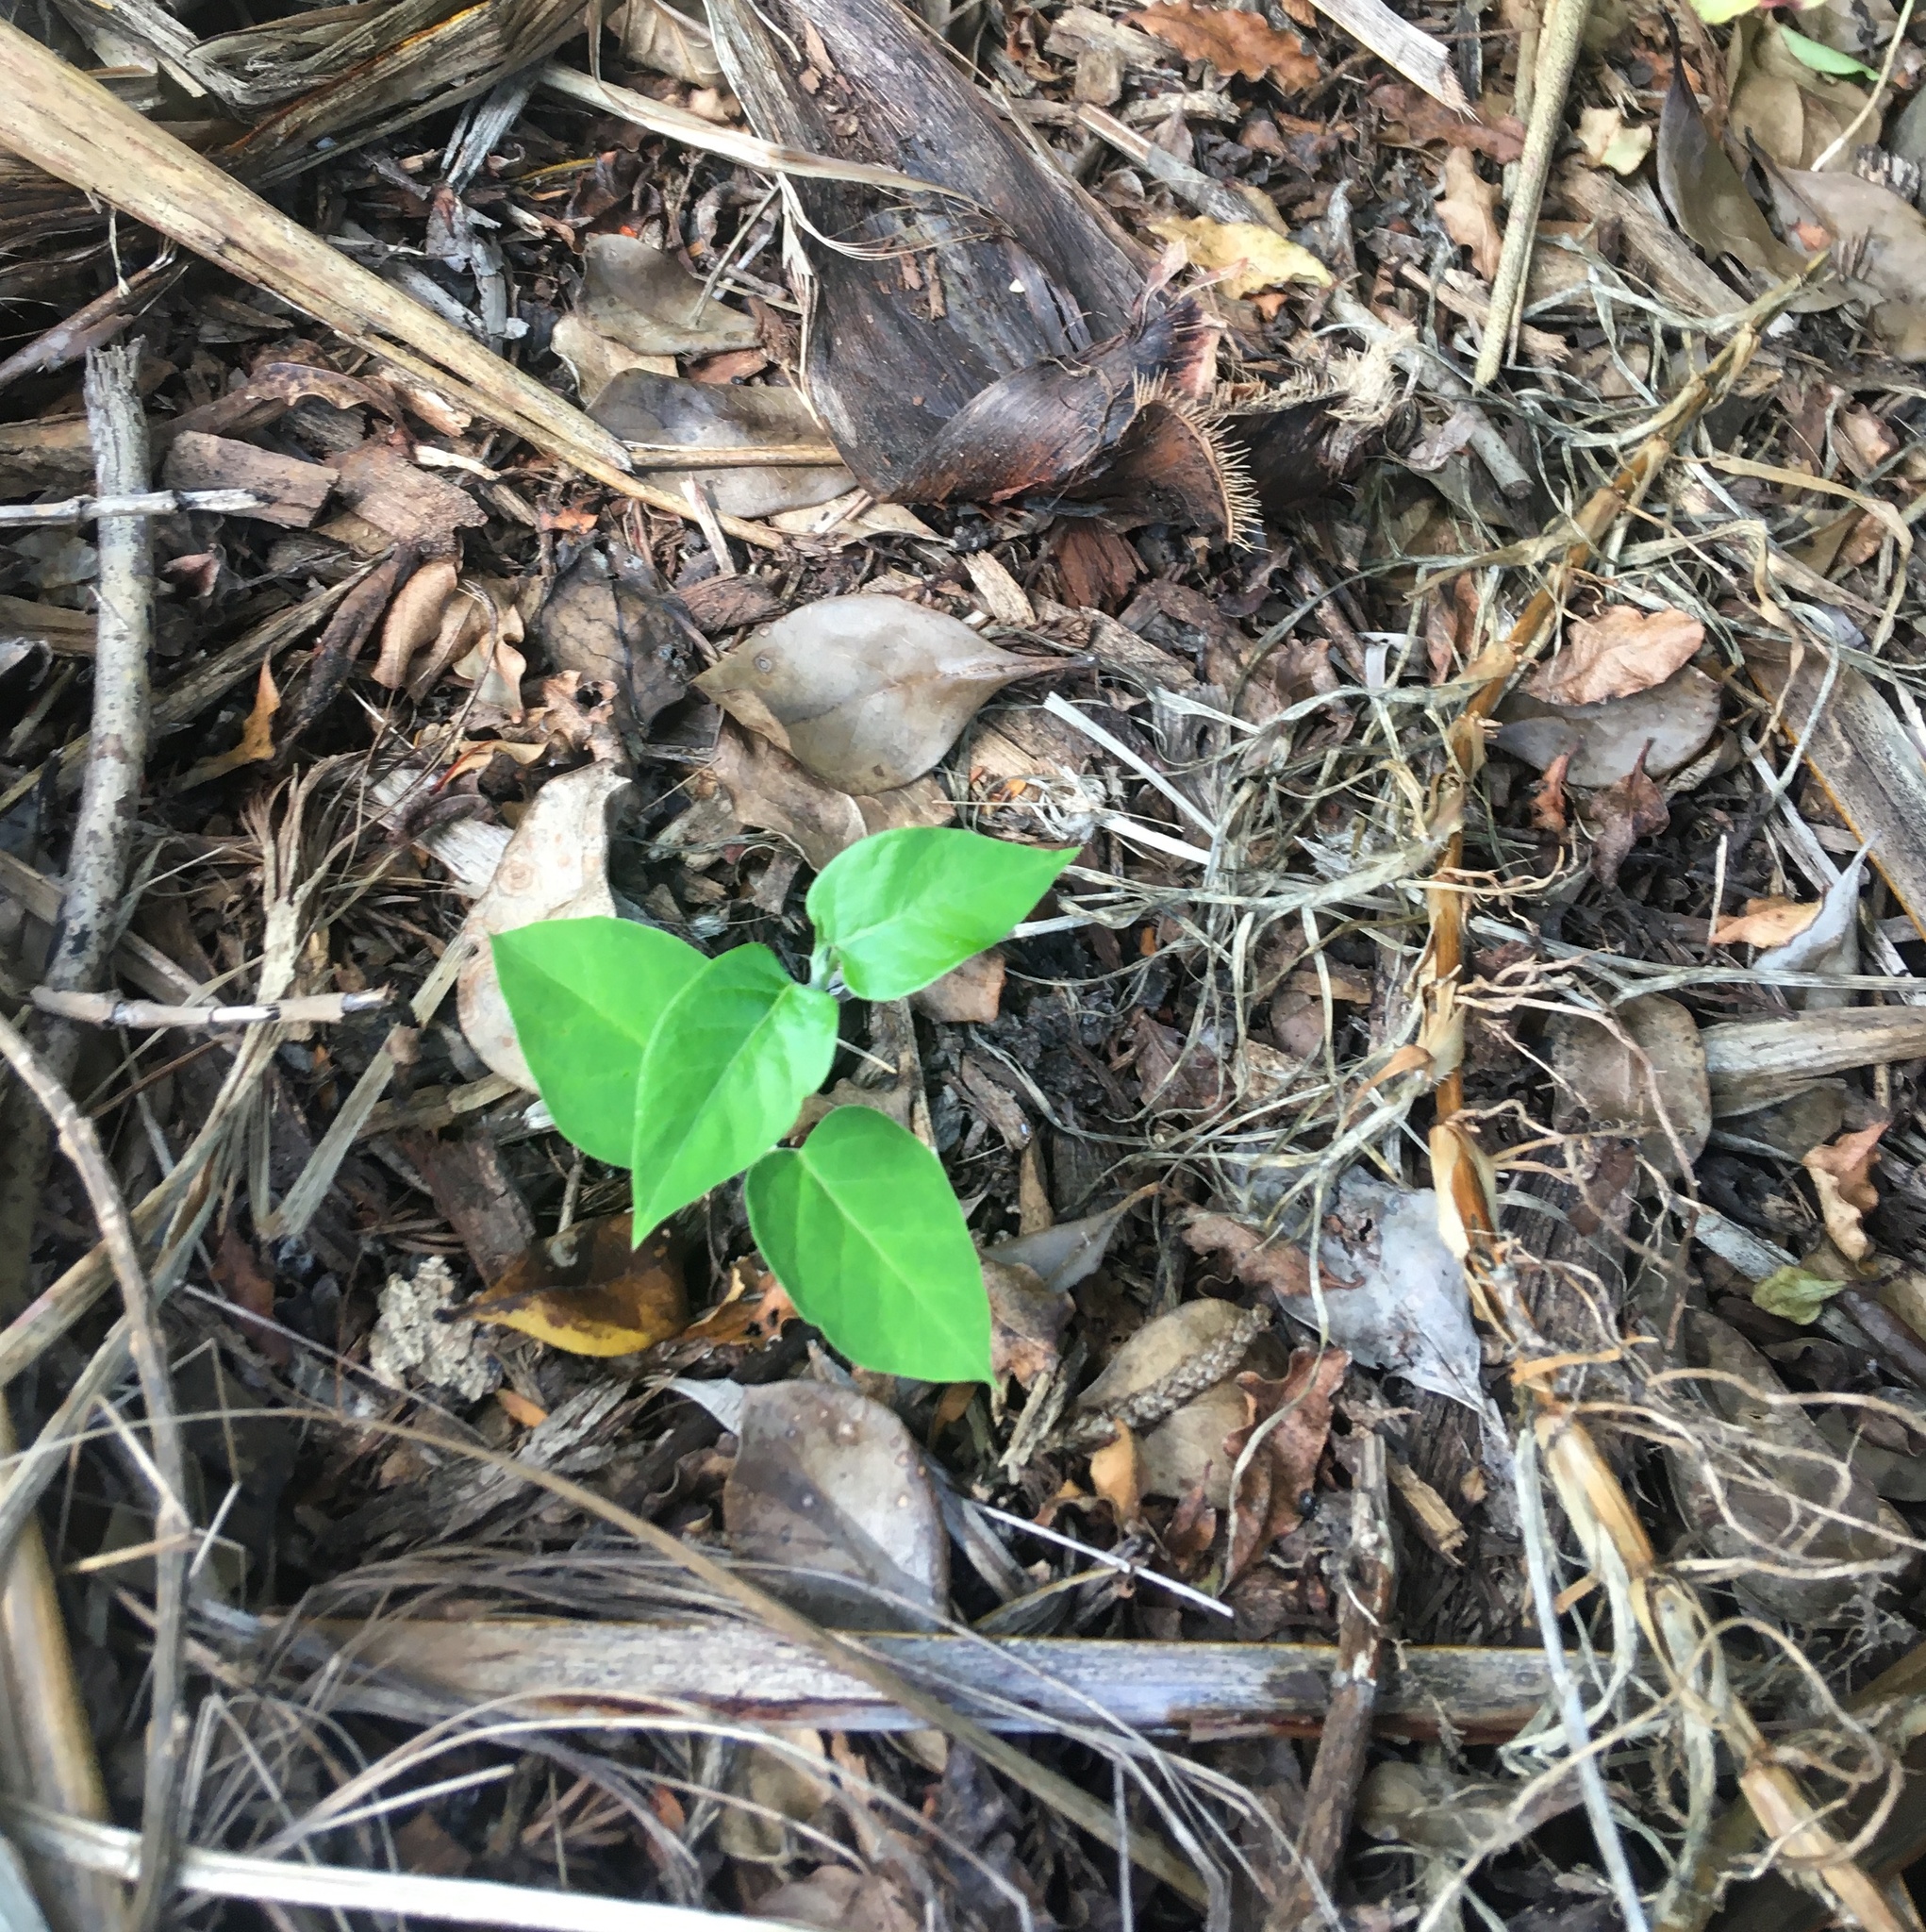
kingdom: Plantae
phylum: Tracheophyta
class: Magnoliopsida
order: Gentianales
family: Apocynaceae
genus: Araujia
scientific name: Araujia sericifera
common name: White bladderflower
